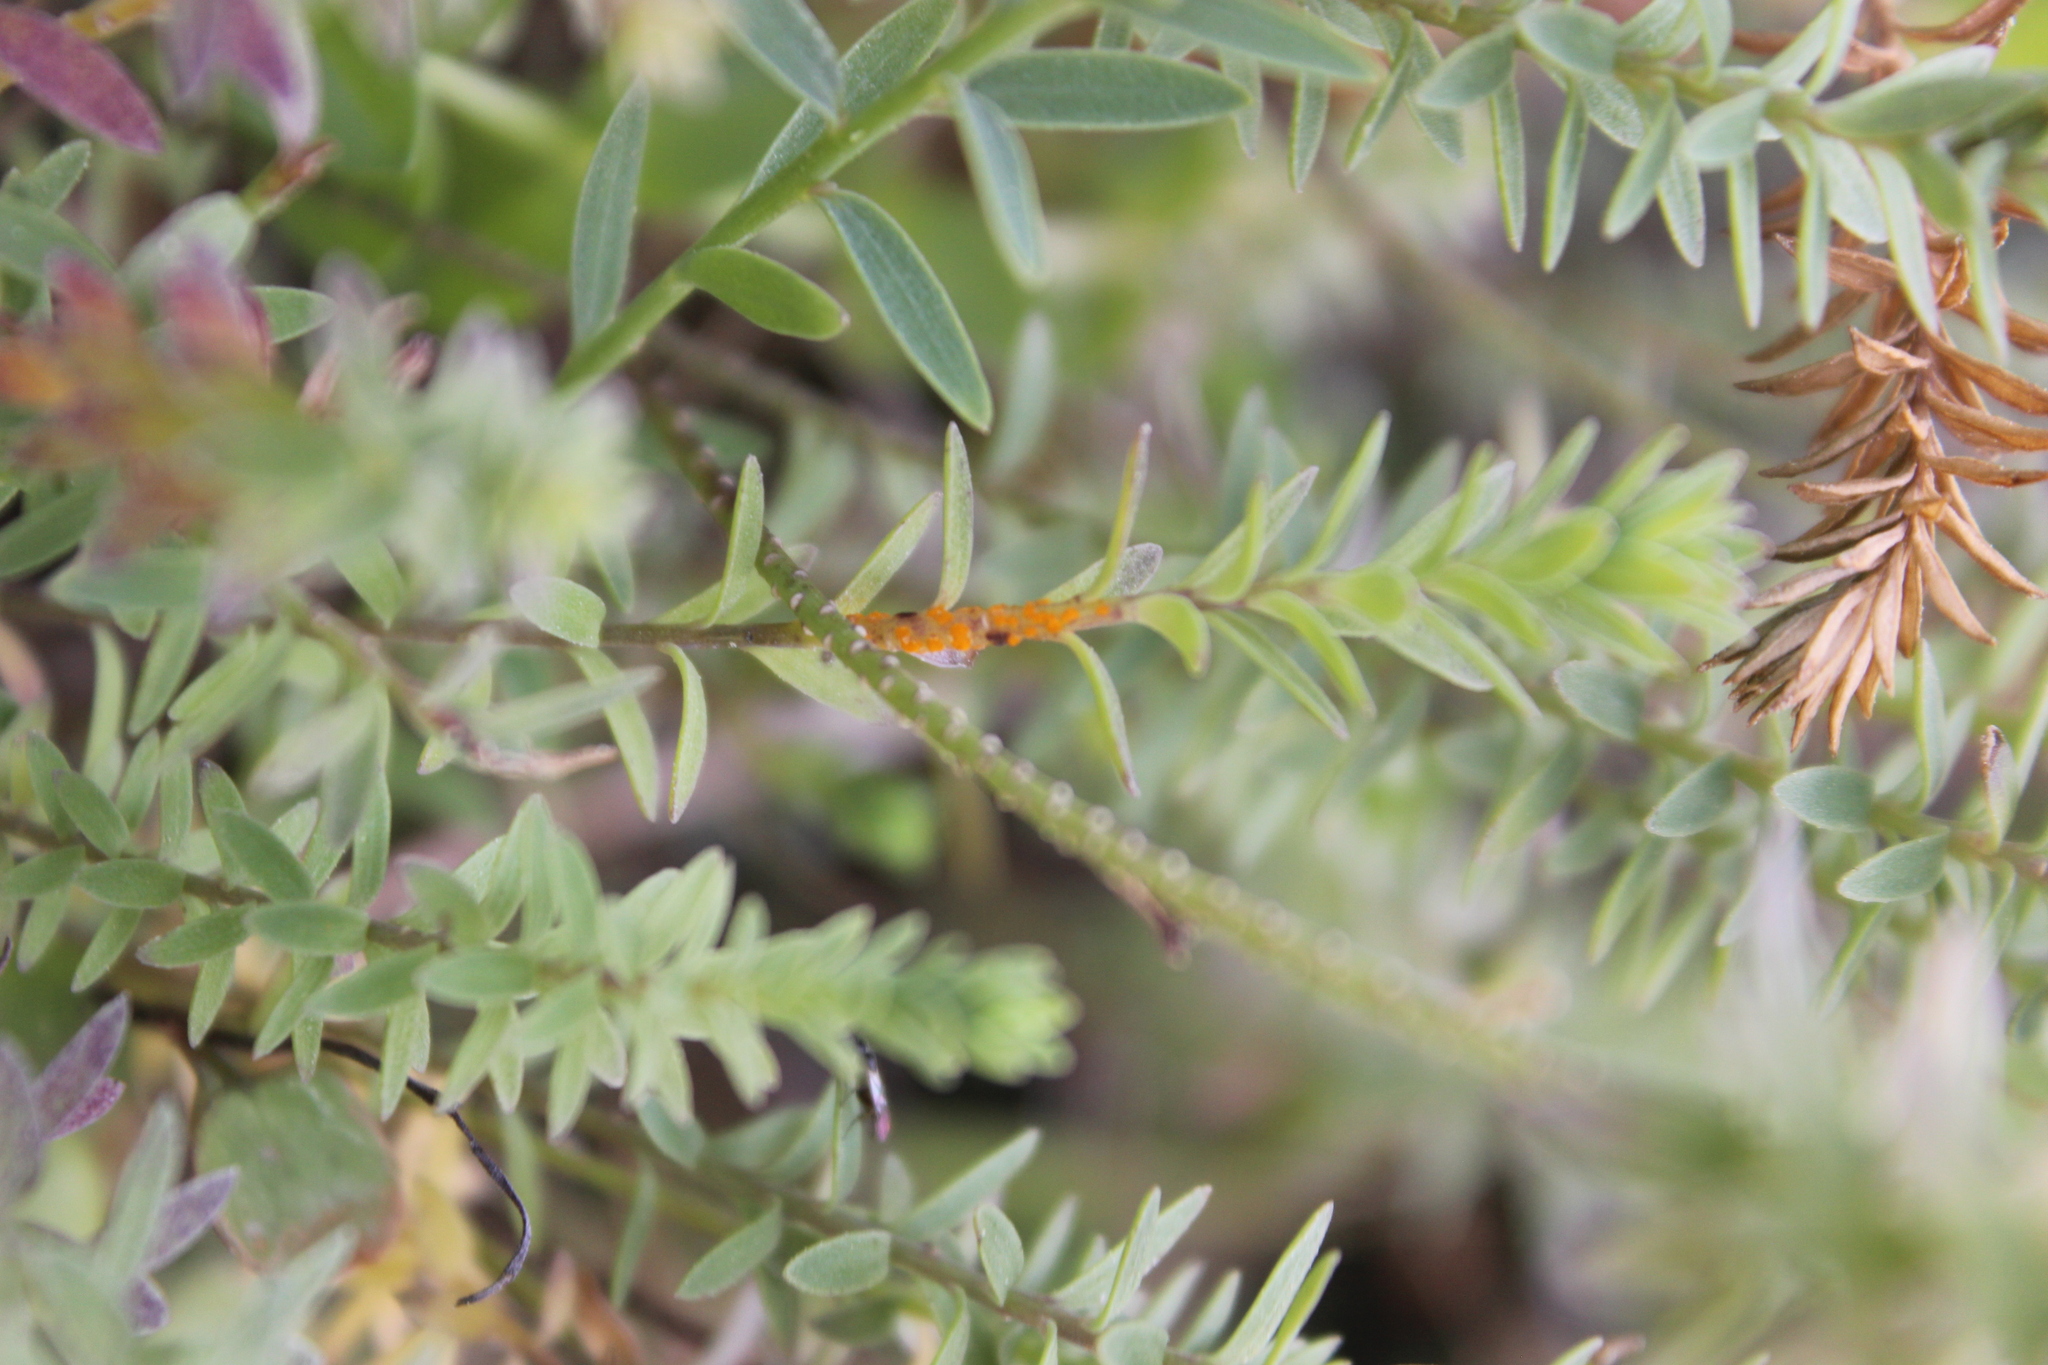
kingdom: Fungi
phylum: Basidiomycota
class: Pucciniomycetes
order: Pucciniales
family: Melampsoraceae
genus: Melampsora
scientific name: Melampsora lini
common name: Flax rust
